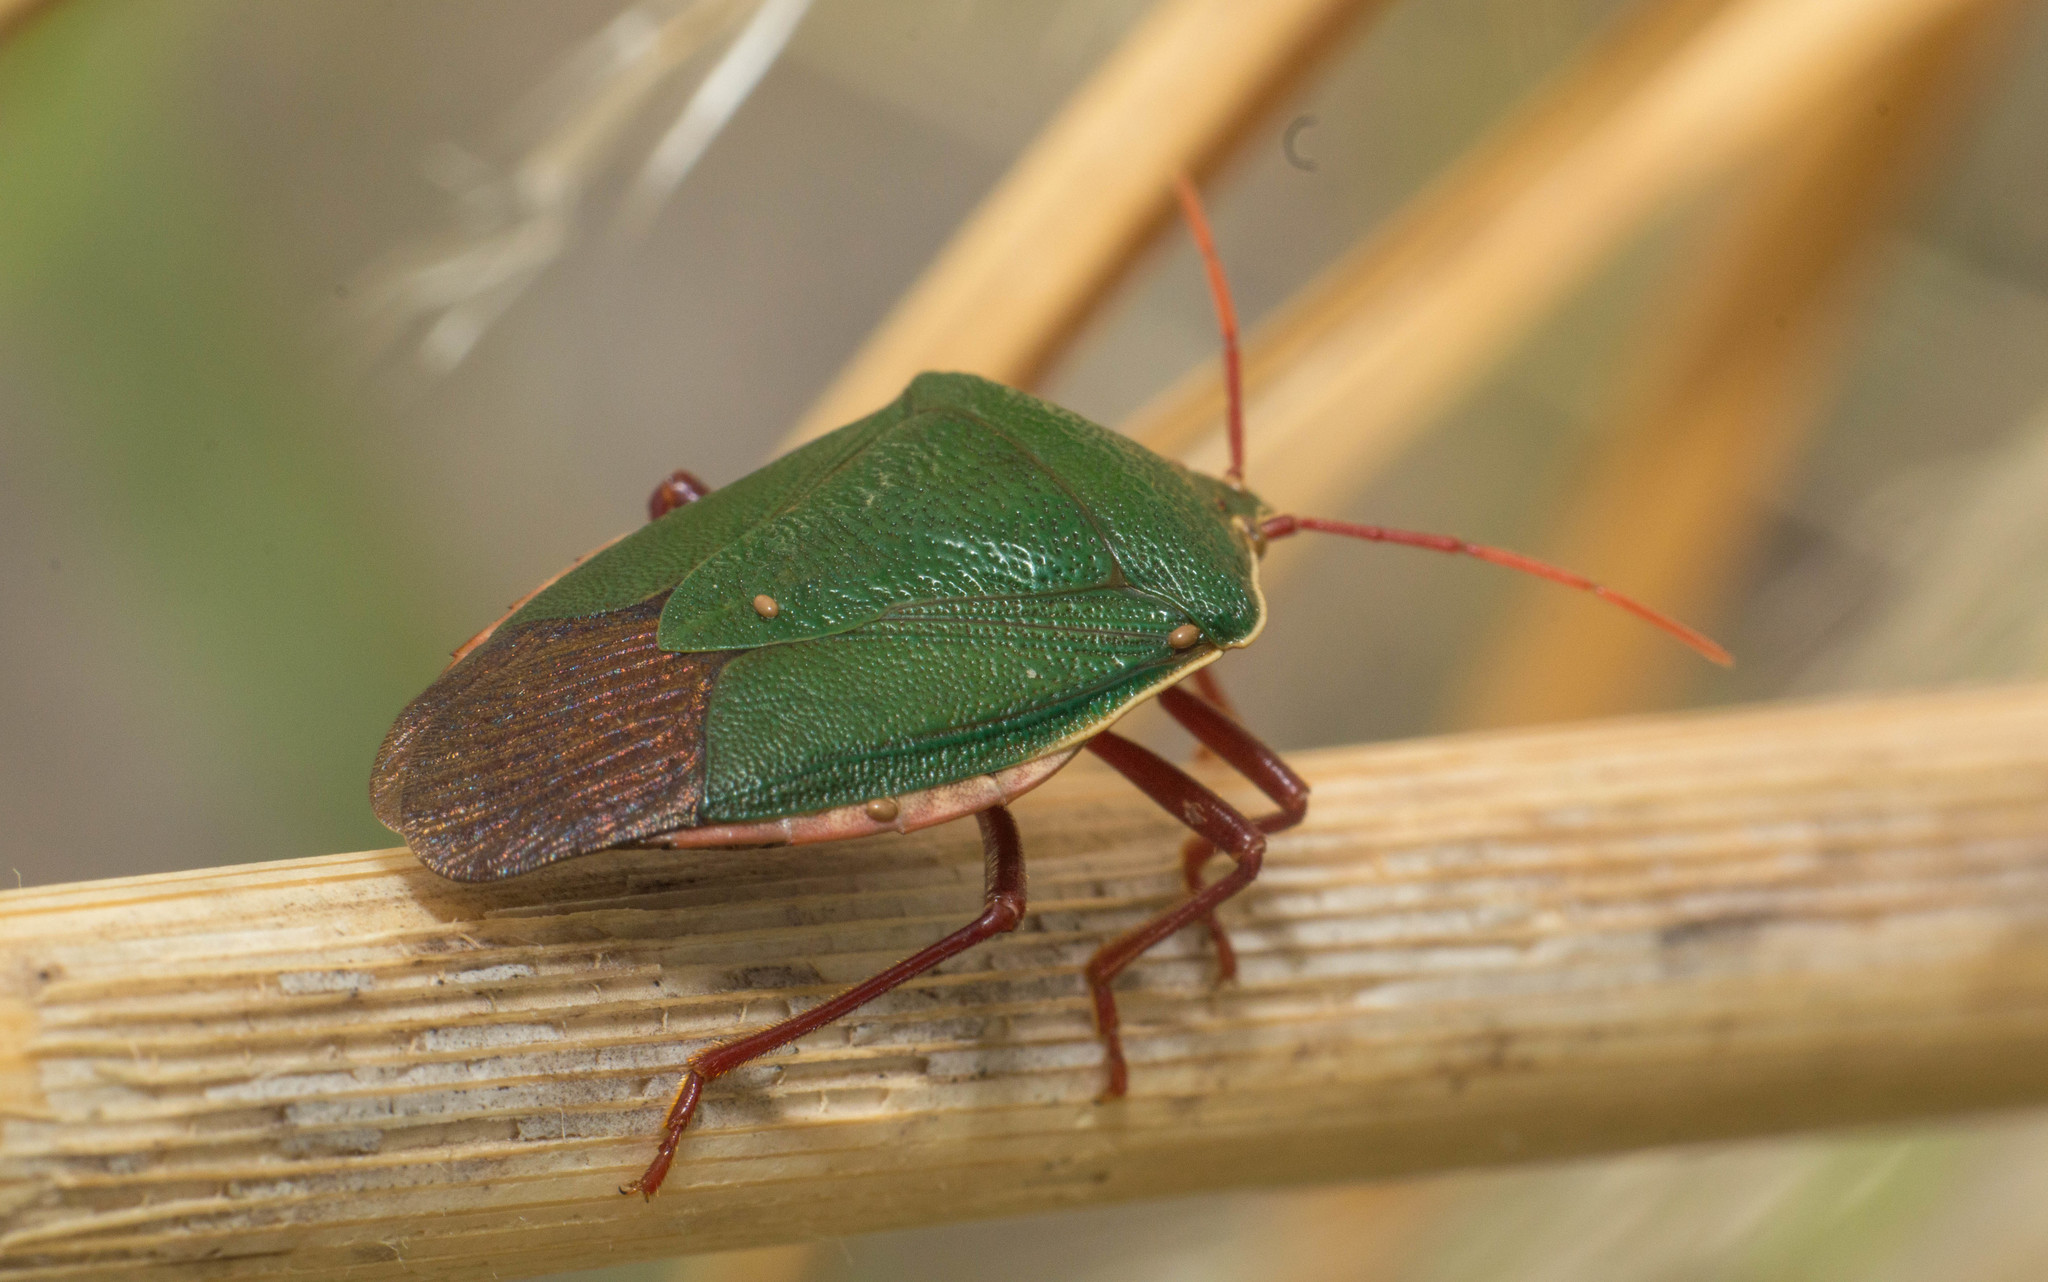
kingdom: Animalia
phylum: Arthropoda
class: Insecta
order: Hemiptera
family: Pentatomidae
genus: Edessa
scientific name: Edessa
